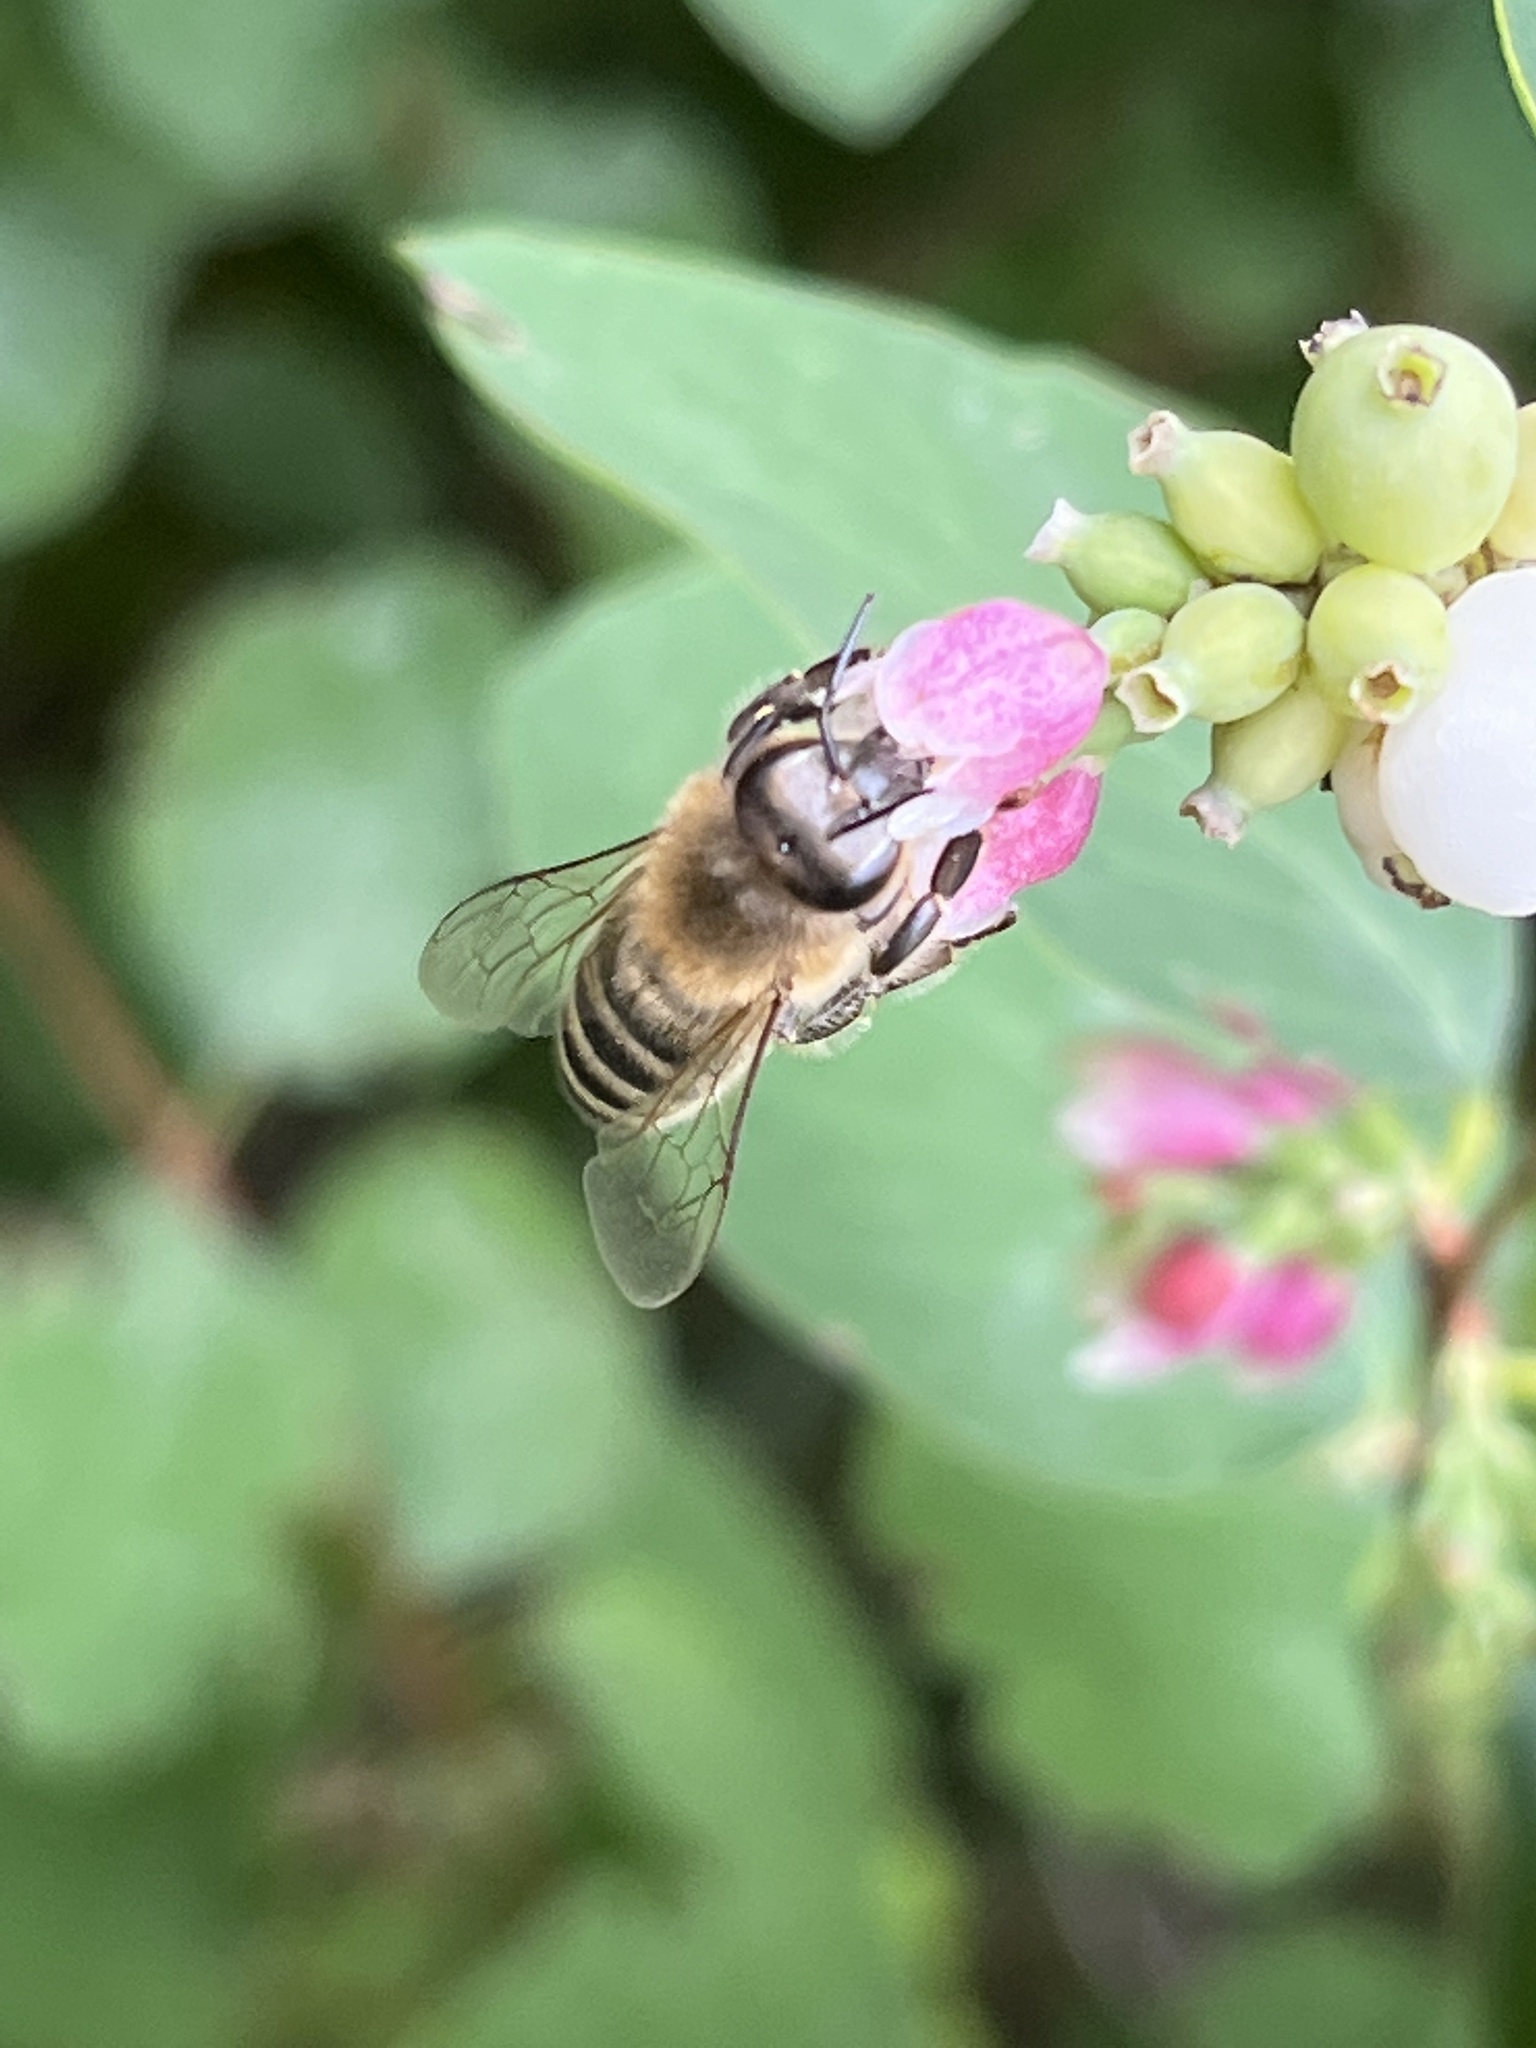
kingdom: Animalia
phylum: Arthropoda
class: Insecta
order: Hymenoptera
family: Apidae
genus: Apis
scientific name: Apis mellifera
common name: Honey bee
